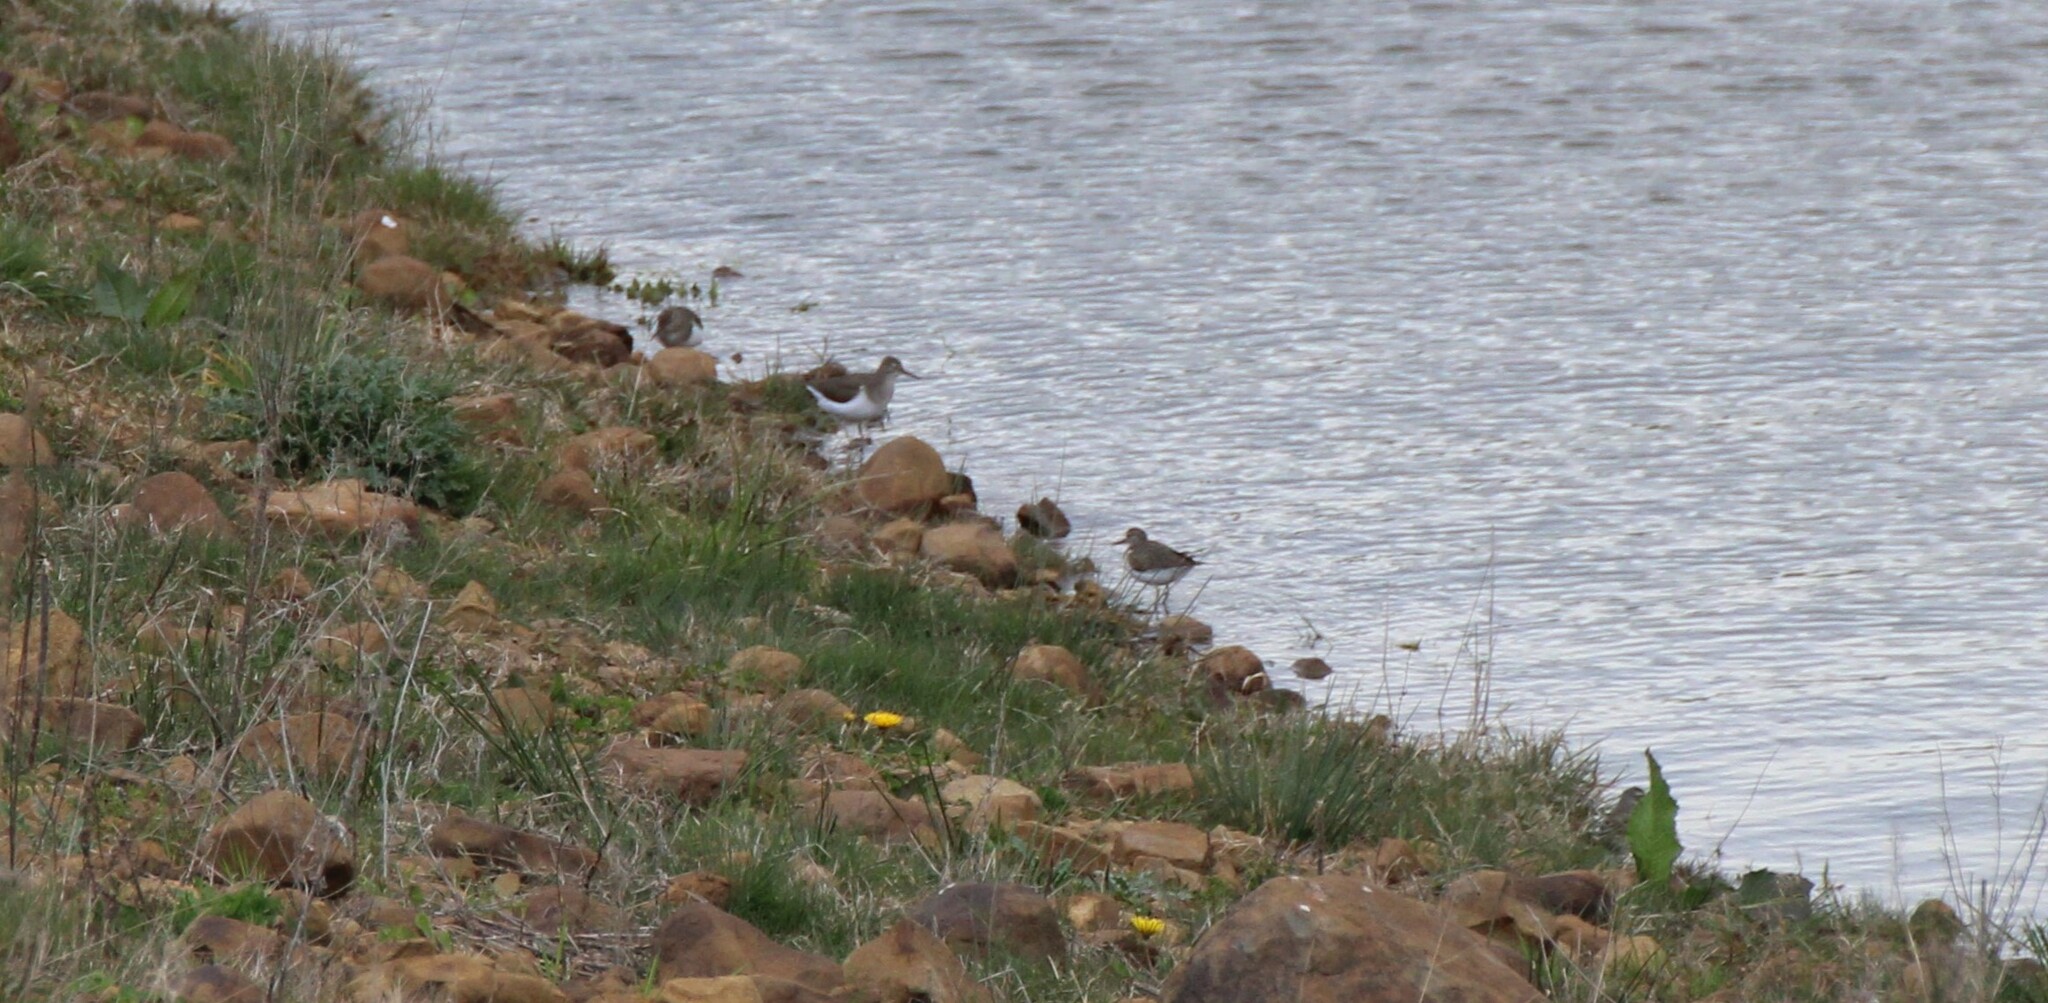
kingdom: Animalia
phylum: Chordata
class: Aves
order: Charadriiformes
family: Scolopacidae
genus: Actitis
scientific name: Actitis hypoleucos
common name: Common sandpiper
